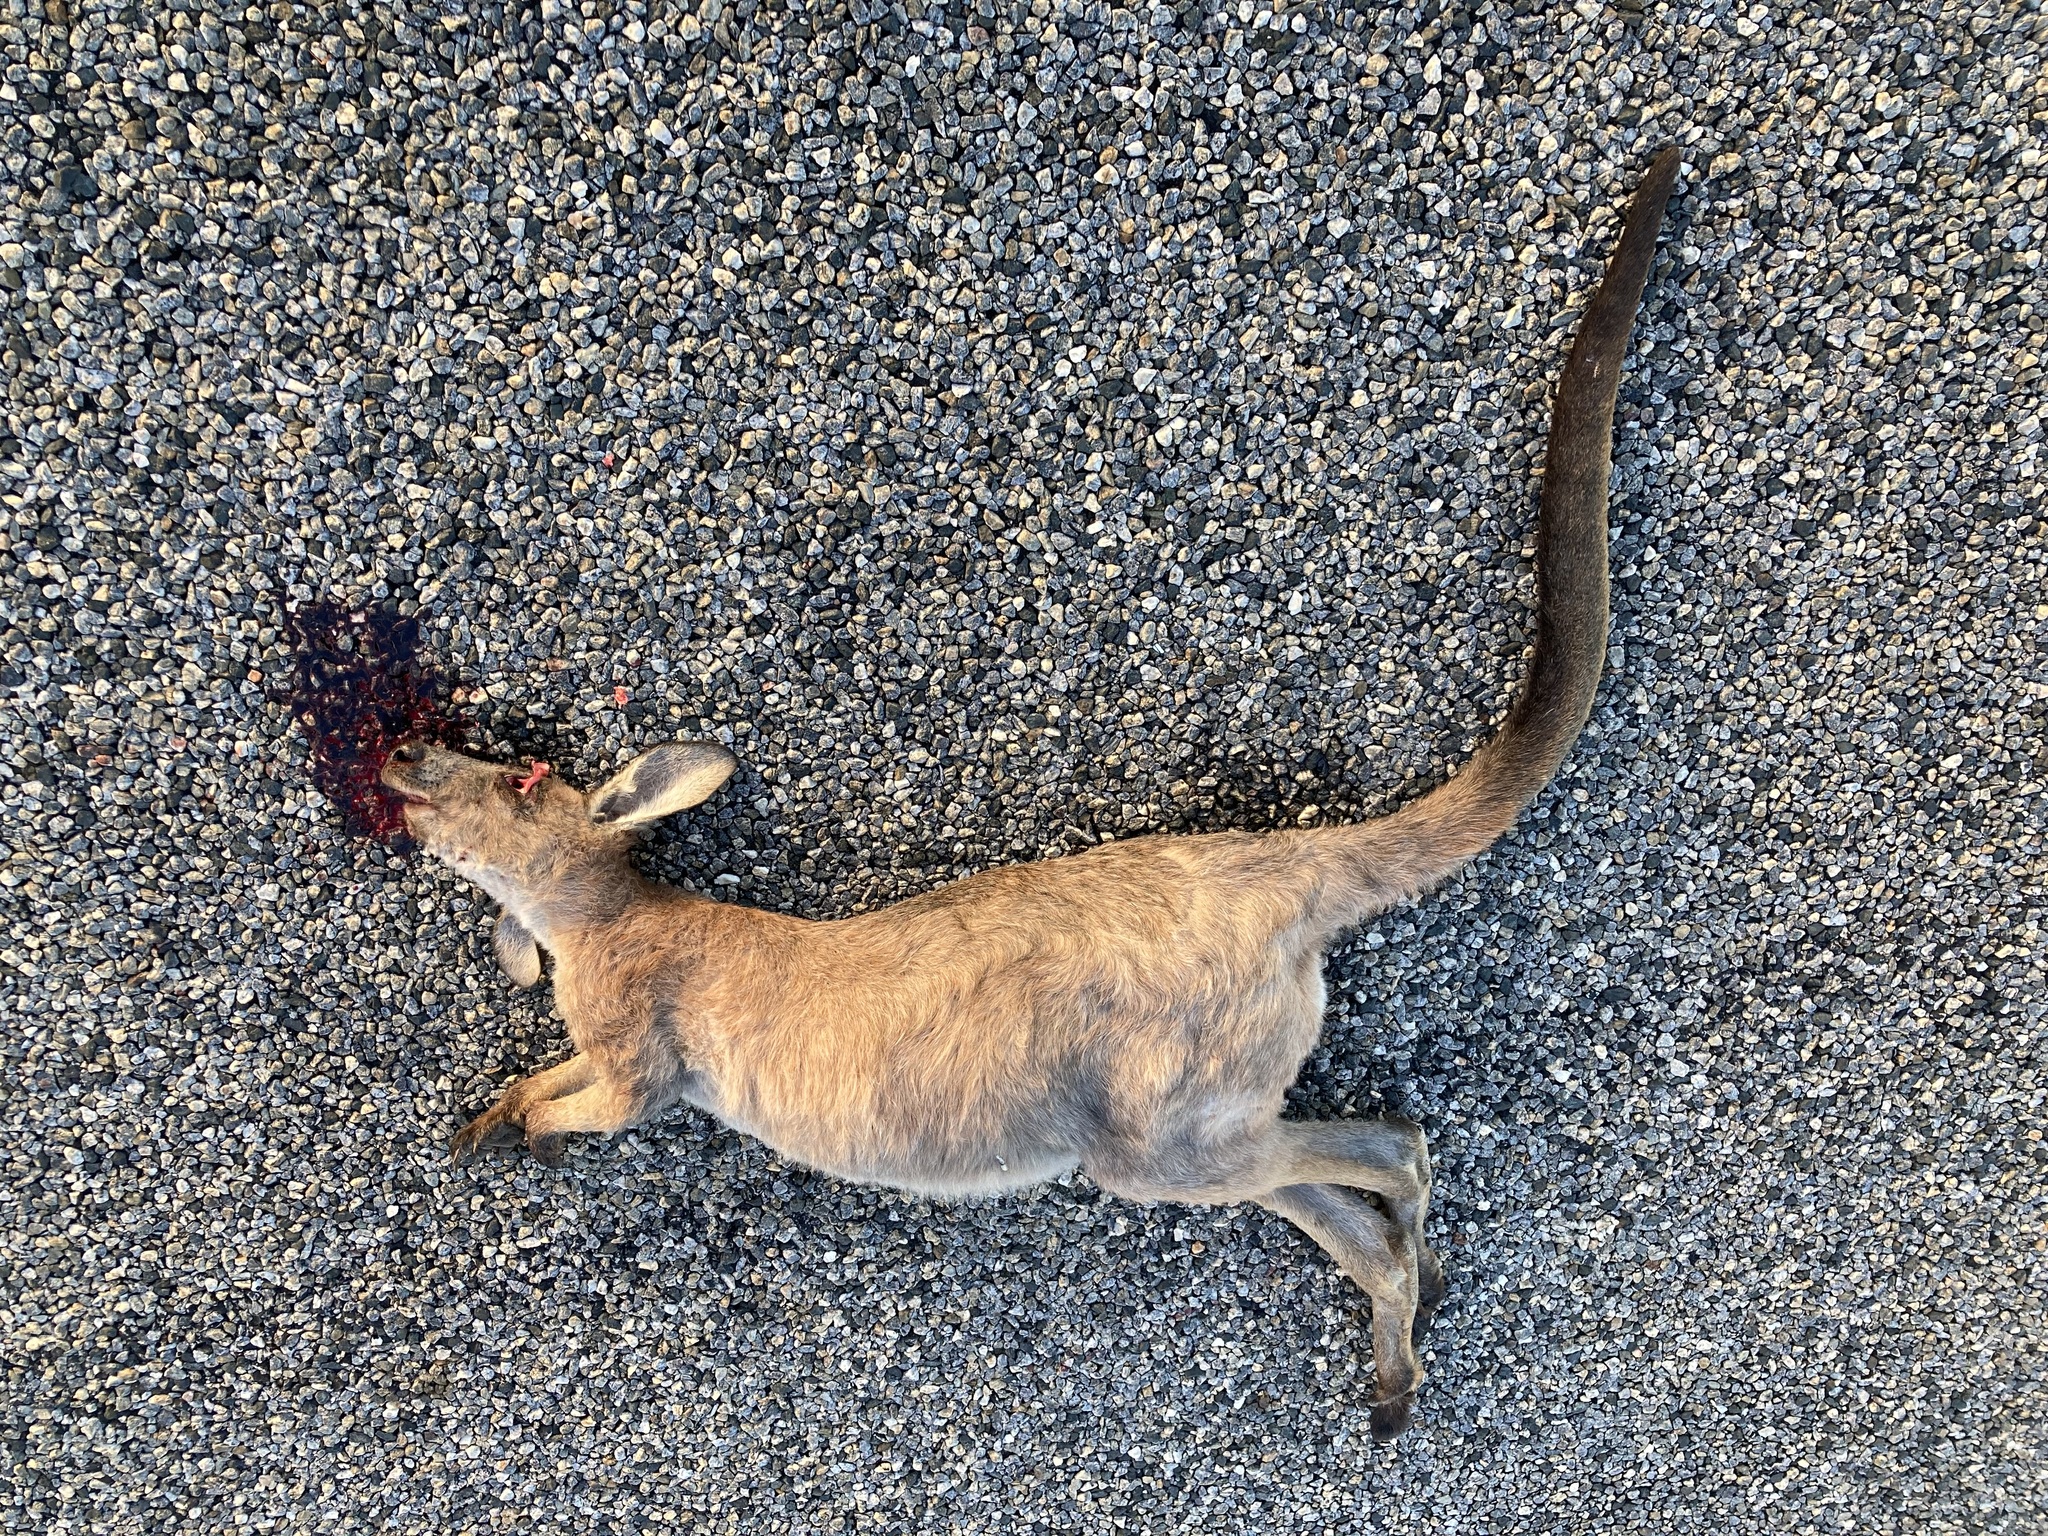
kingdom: Animalia
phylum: Chordata
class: Mammalia
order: Diprotodontia
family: Macropodidae
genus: Macropus
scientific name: Macropus robustus
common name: Eastern wallaroo
